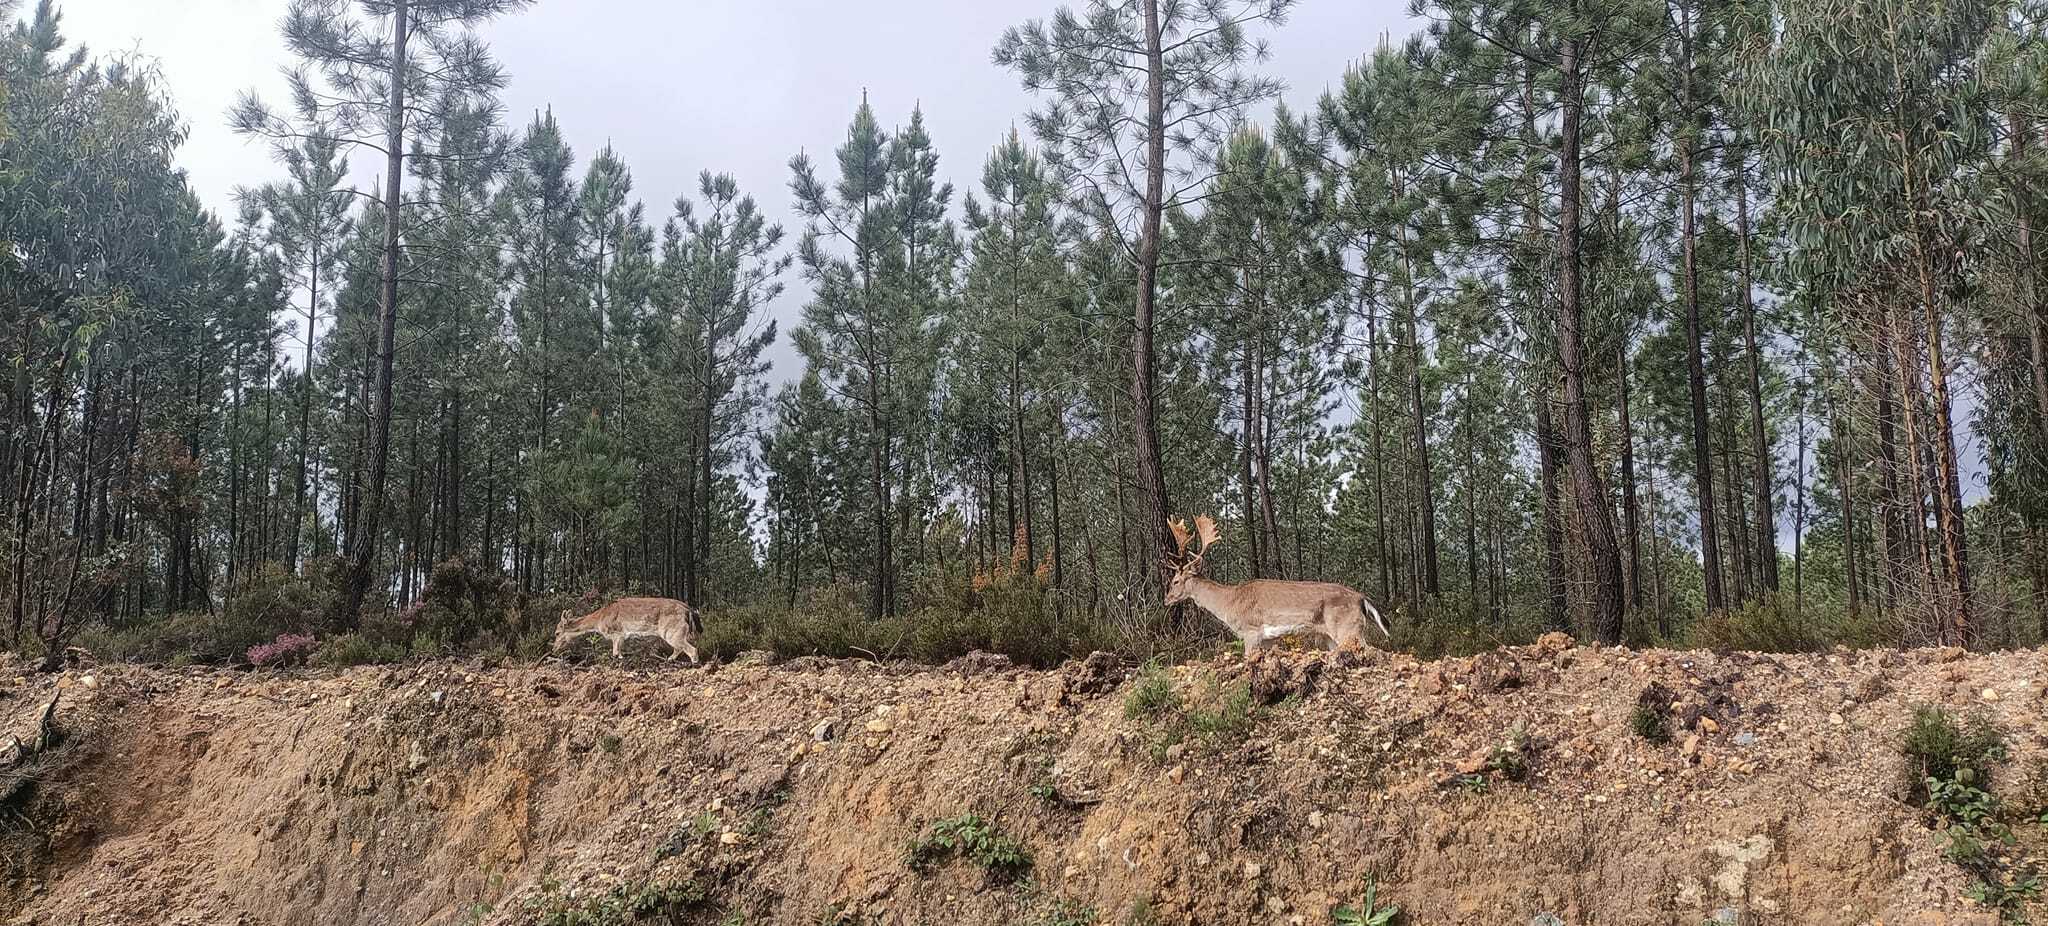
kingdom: Animalia
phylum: Chordata
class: Mammalia
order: Artiodactyla
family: Cervidae
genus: Dama
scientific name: Dama dama
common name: Fallow deer
